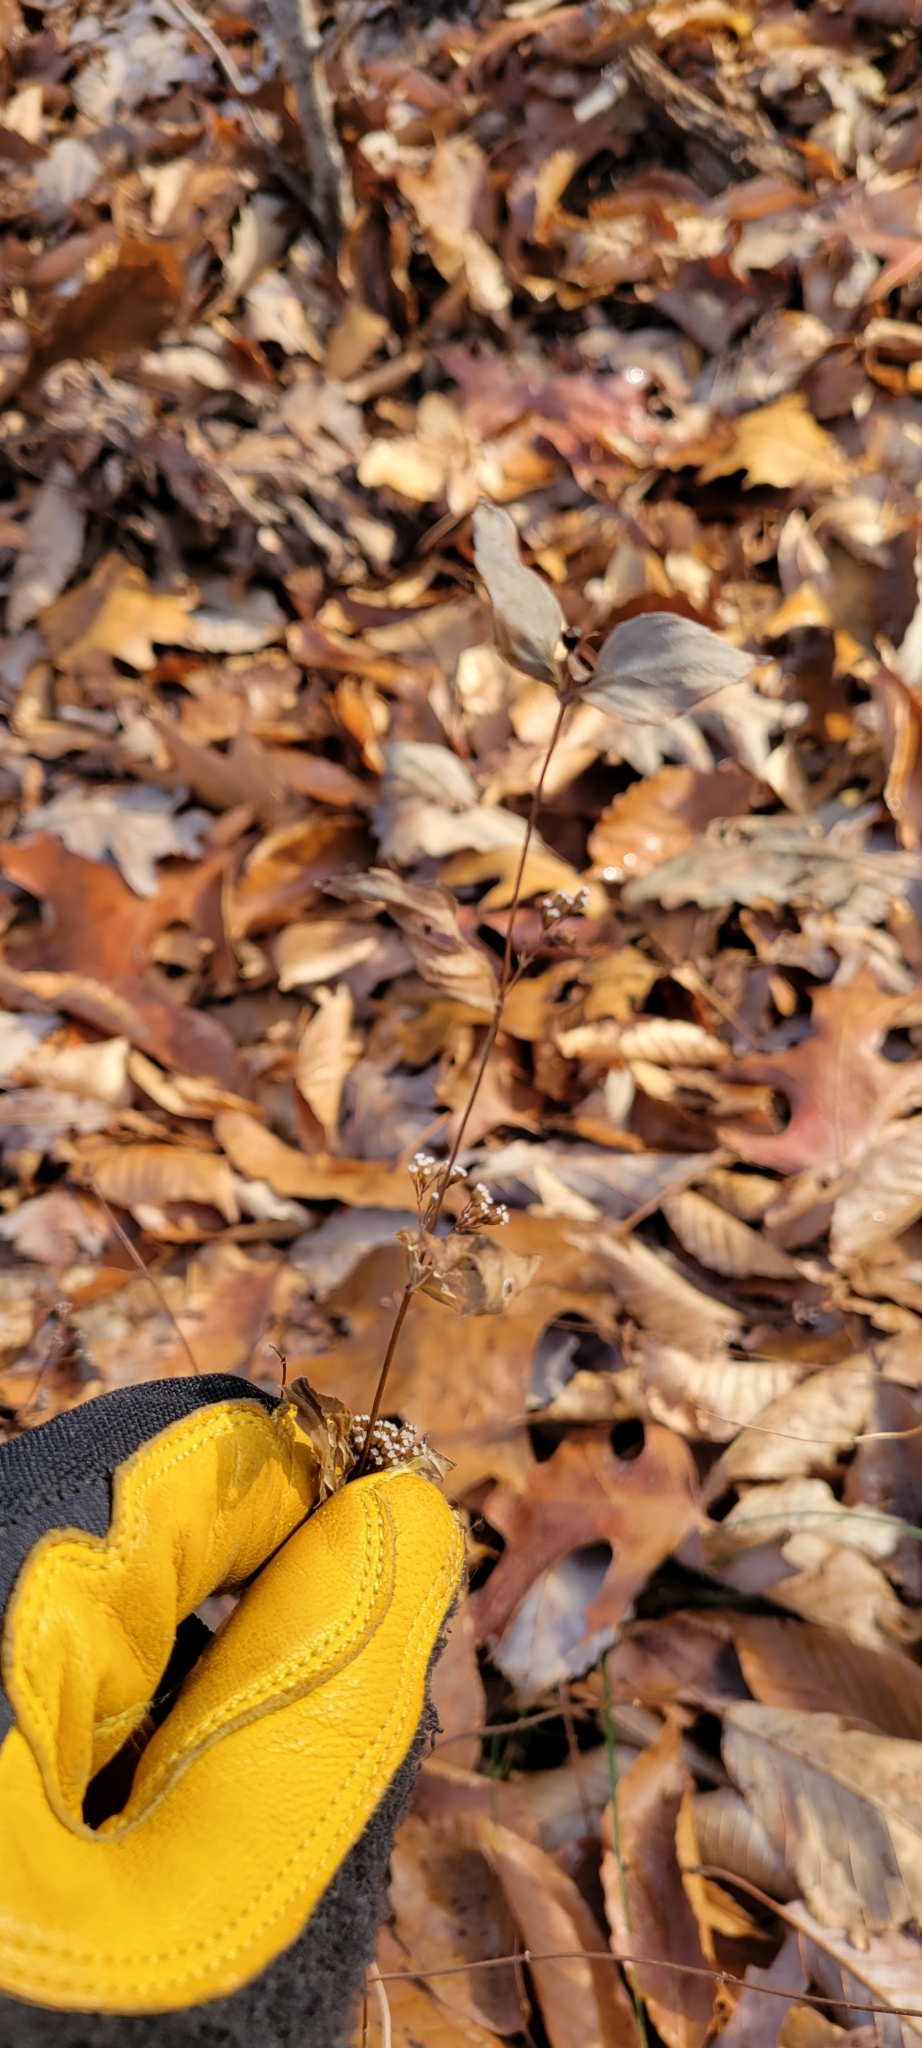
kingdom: Plantae
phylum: Tracheophyta
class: Magnoliopsida
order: Lamiales
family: Lamiaceae
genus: Cunila
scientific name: Cunila origanoides
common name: American dittany
